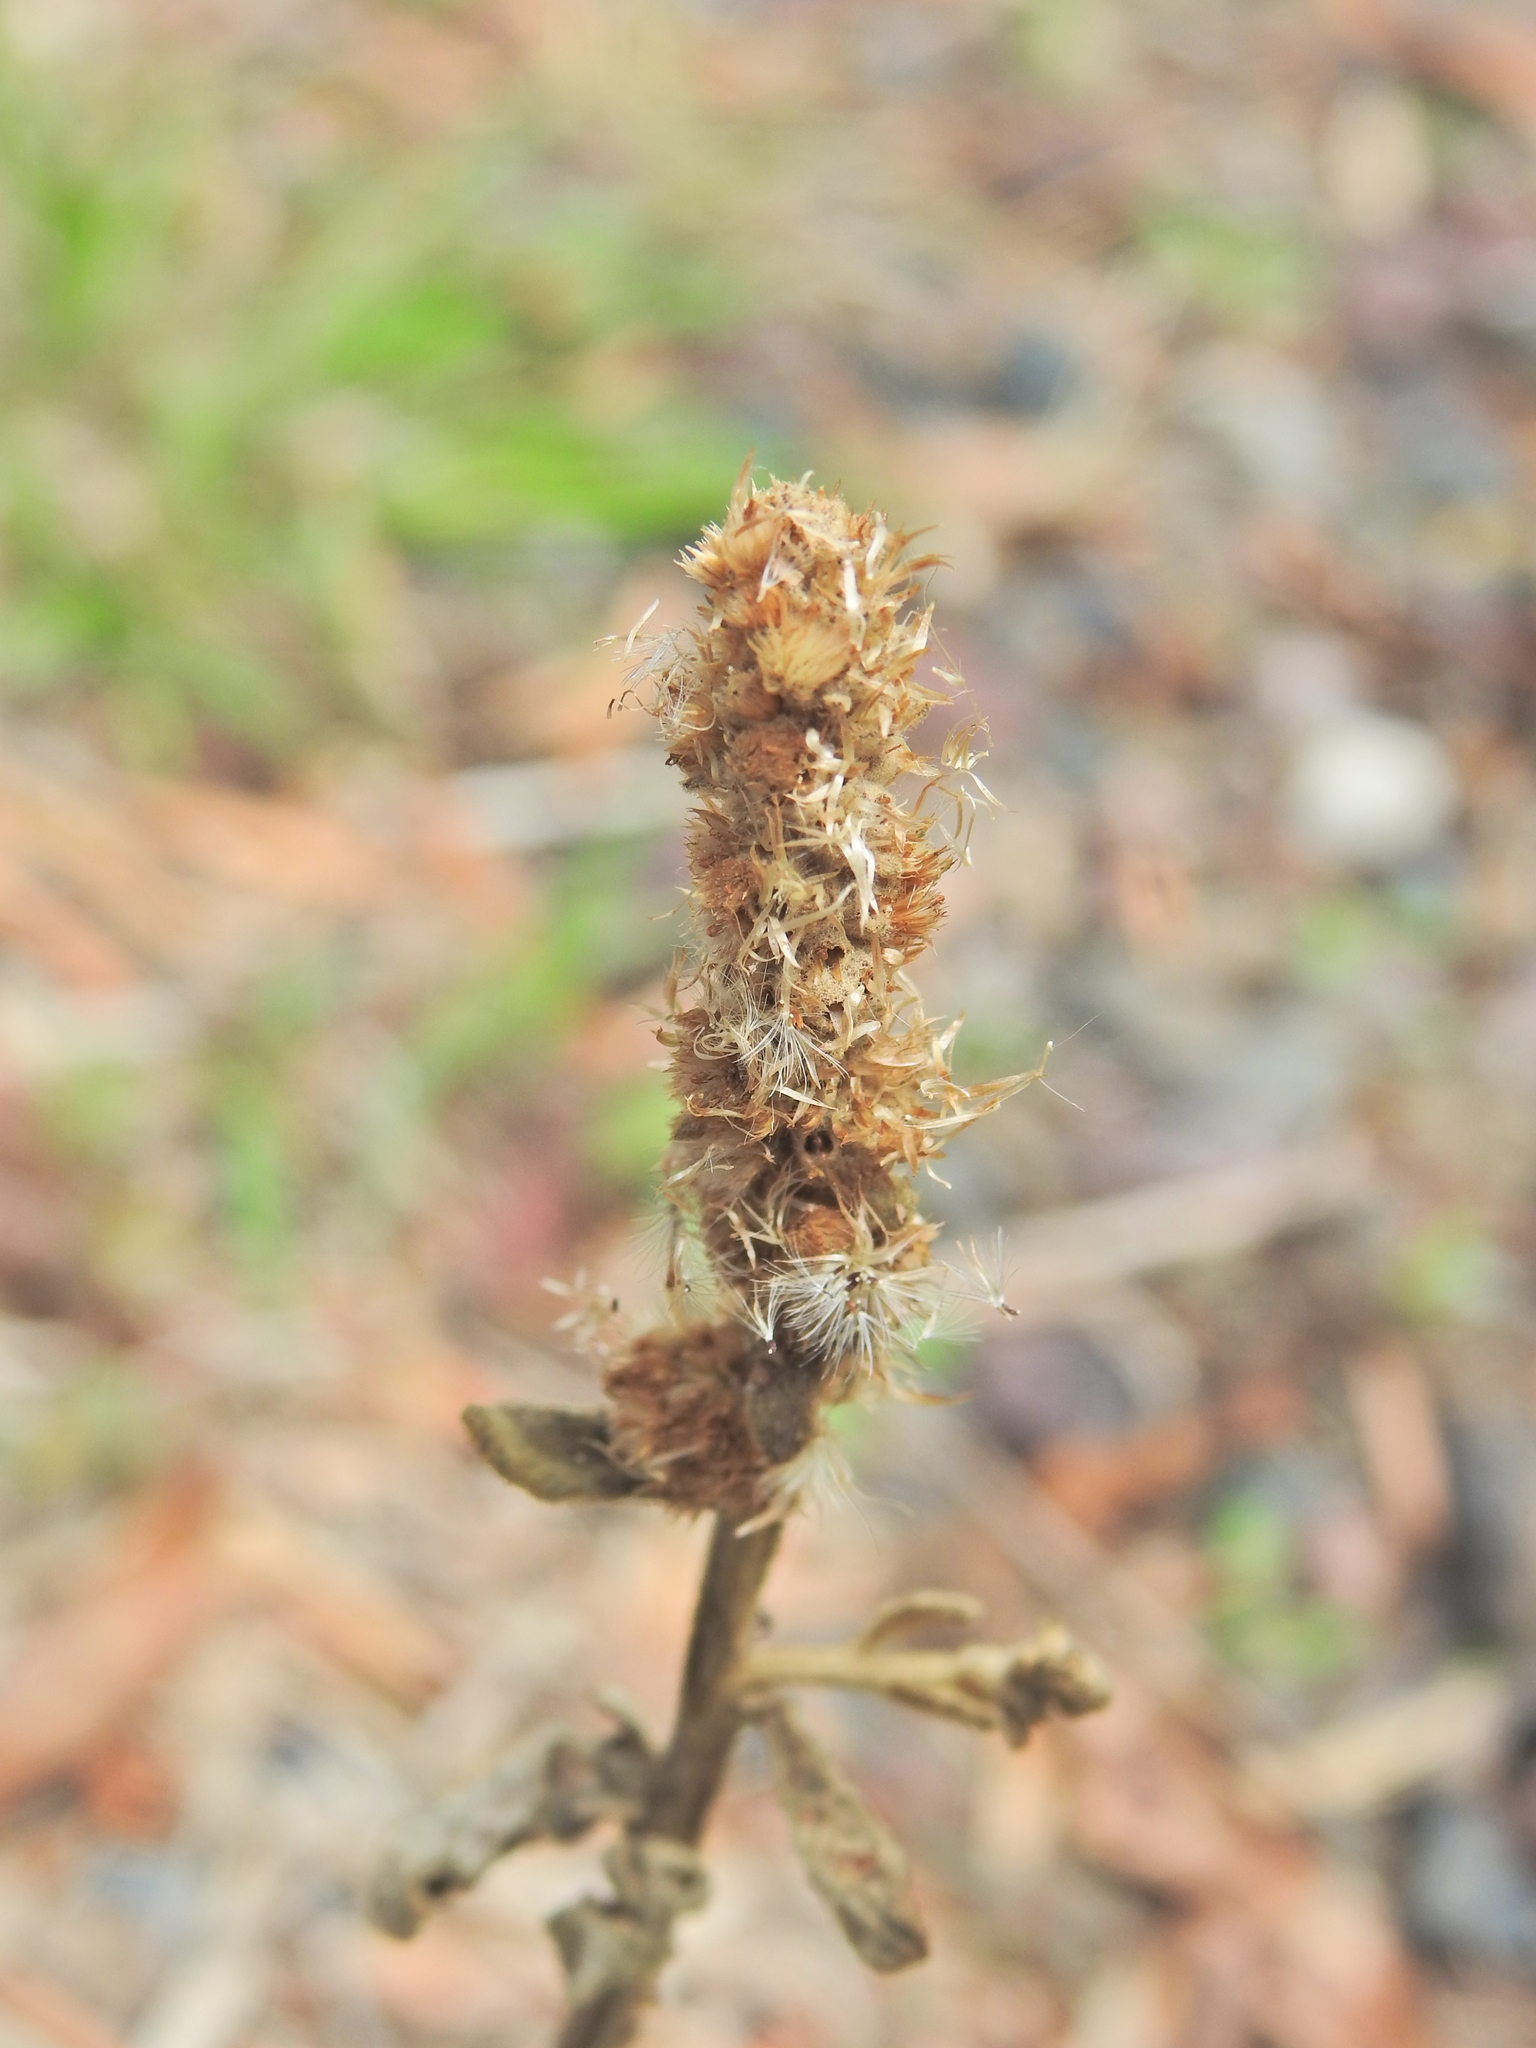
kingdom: Plantae
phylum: Tracheophyta
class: Magnoliopsida
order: Asterales
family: Asteraceae
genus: Pterocaulon
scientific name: Pterocaulon redolens
